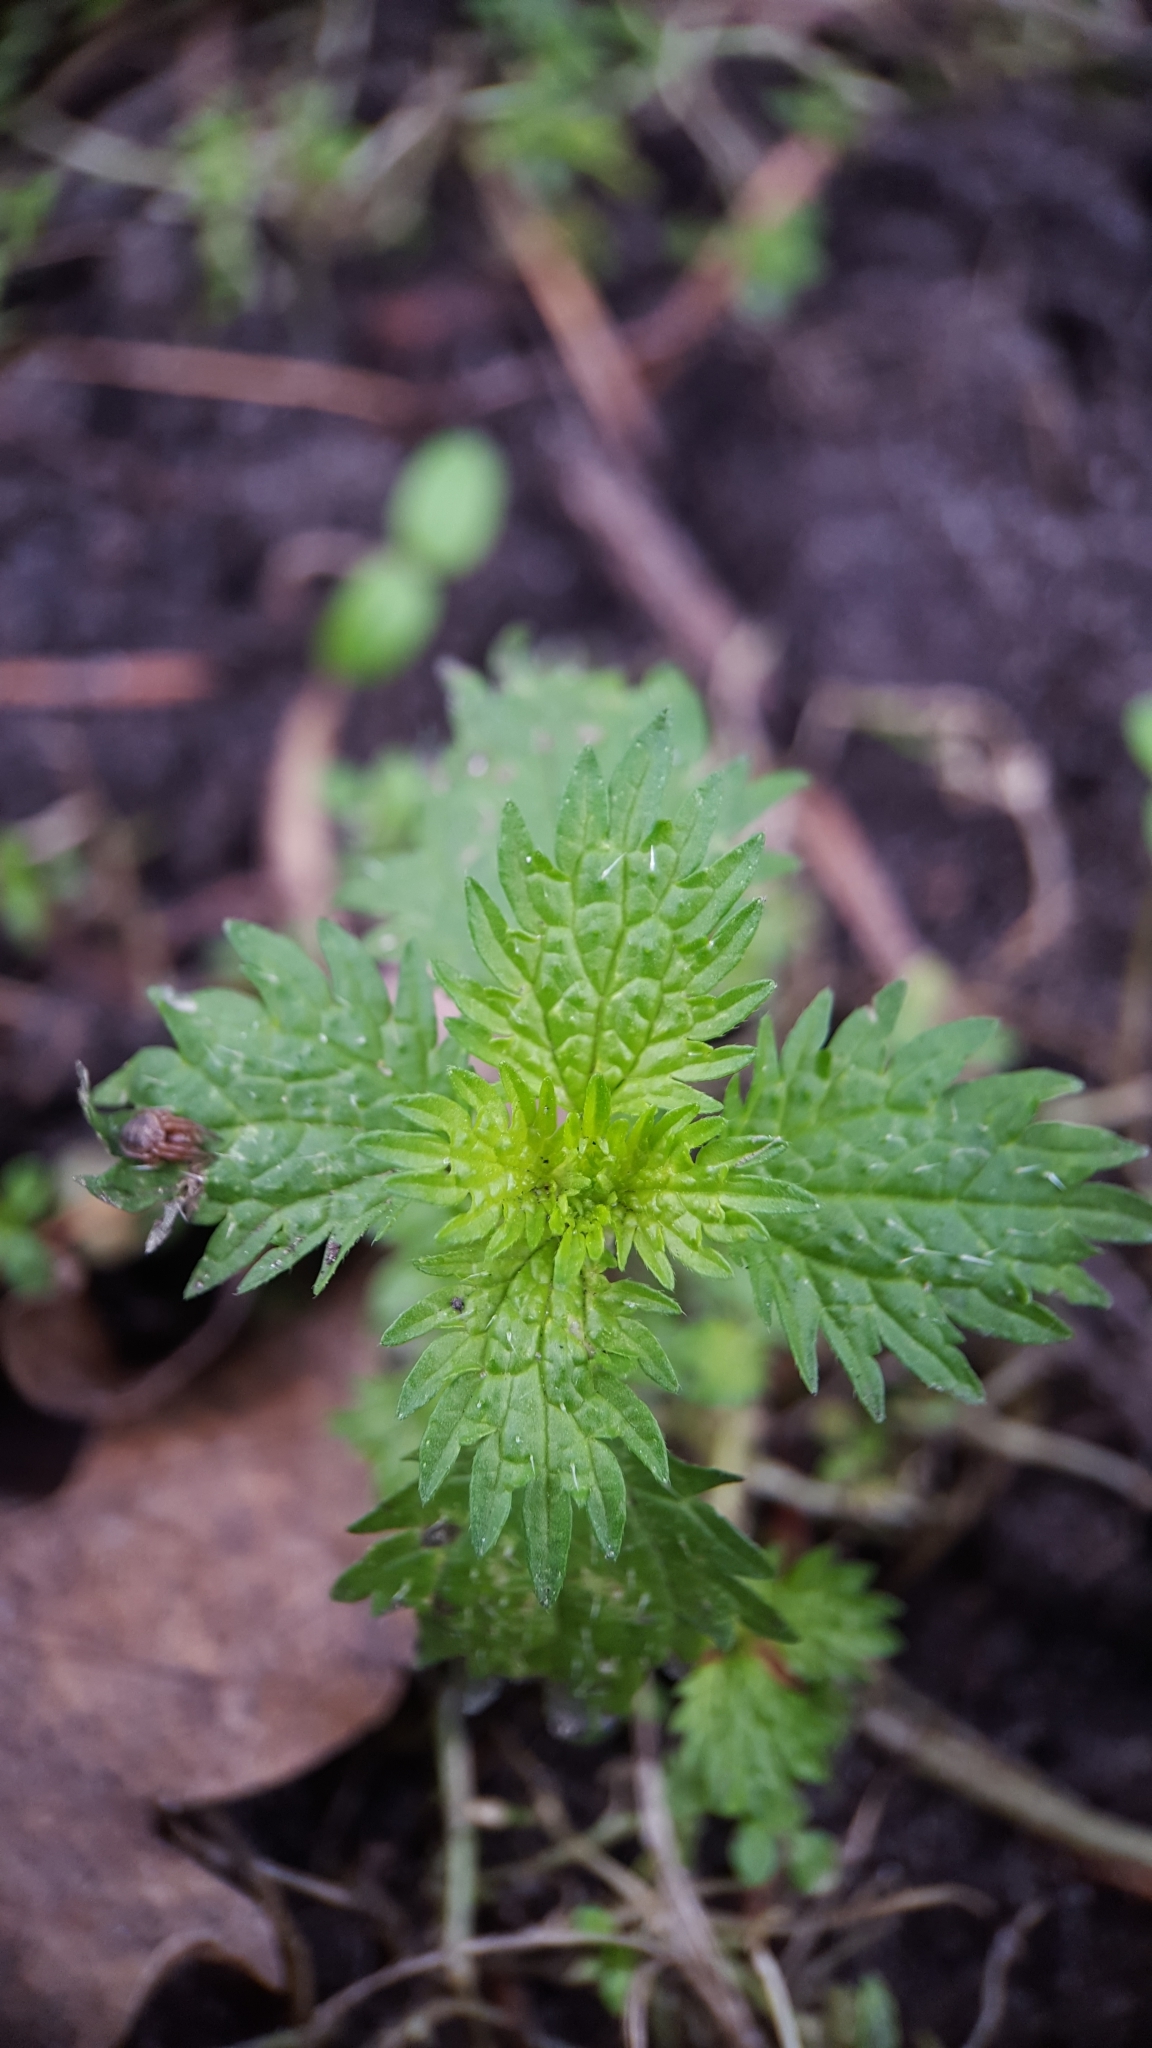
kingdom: Plantae
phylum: Tracheophyta
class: Magnoliopsida
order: Rosales
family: Urticaceae
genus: Urtica
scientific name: Urtica urens
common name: Dwarf nettle
